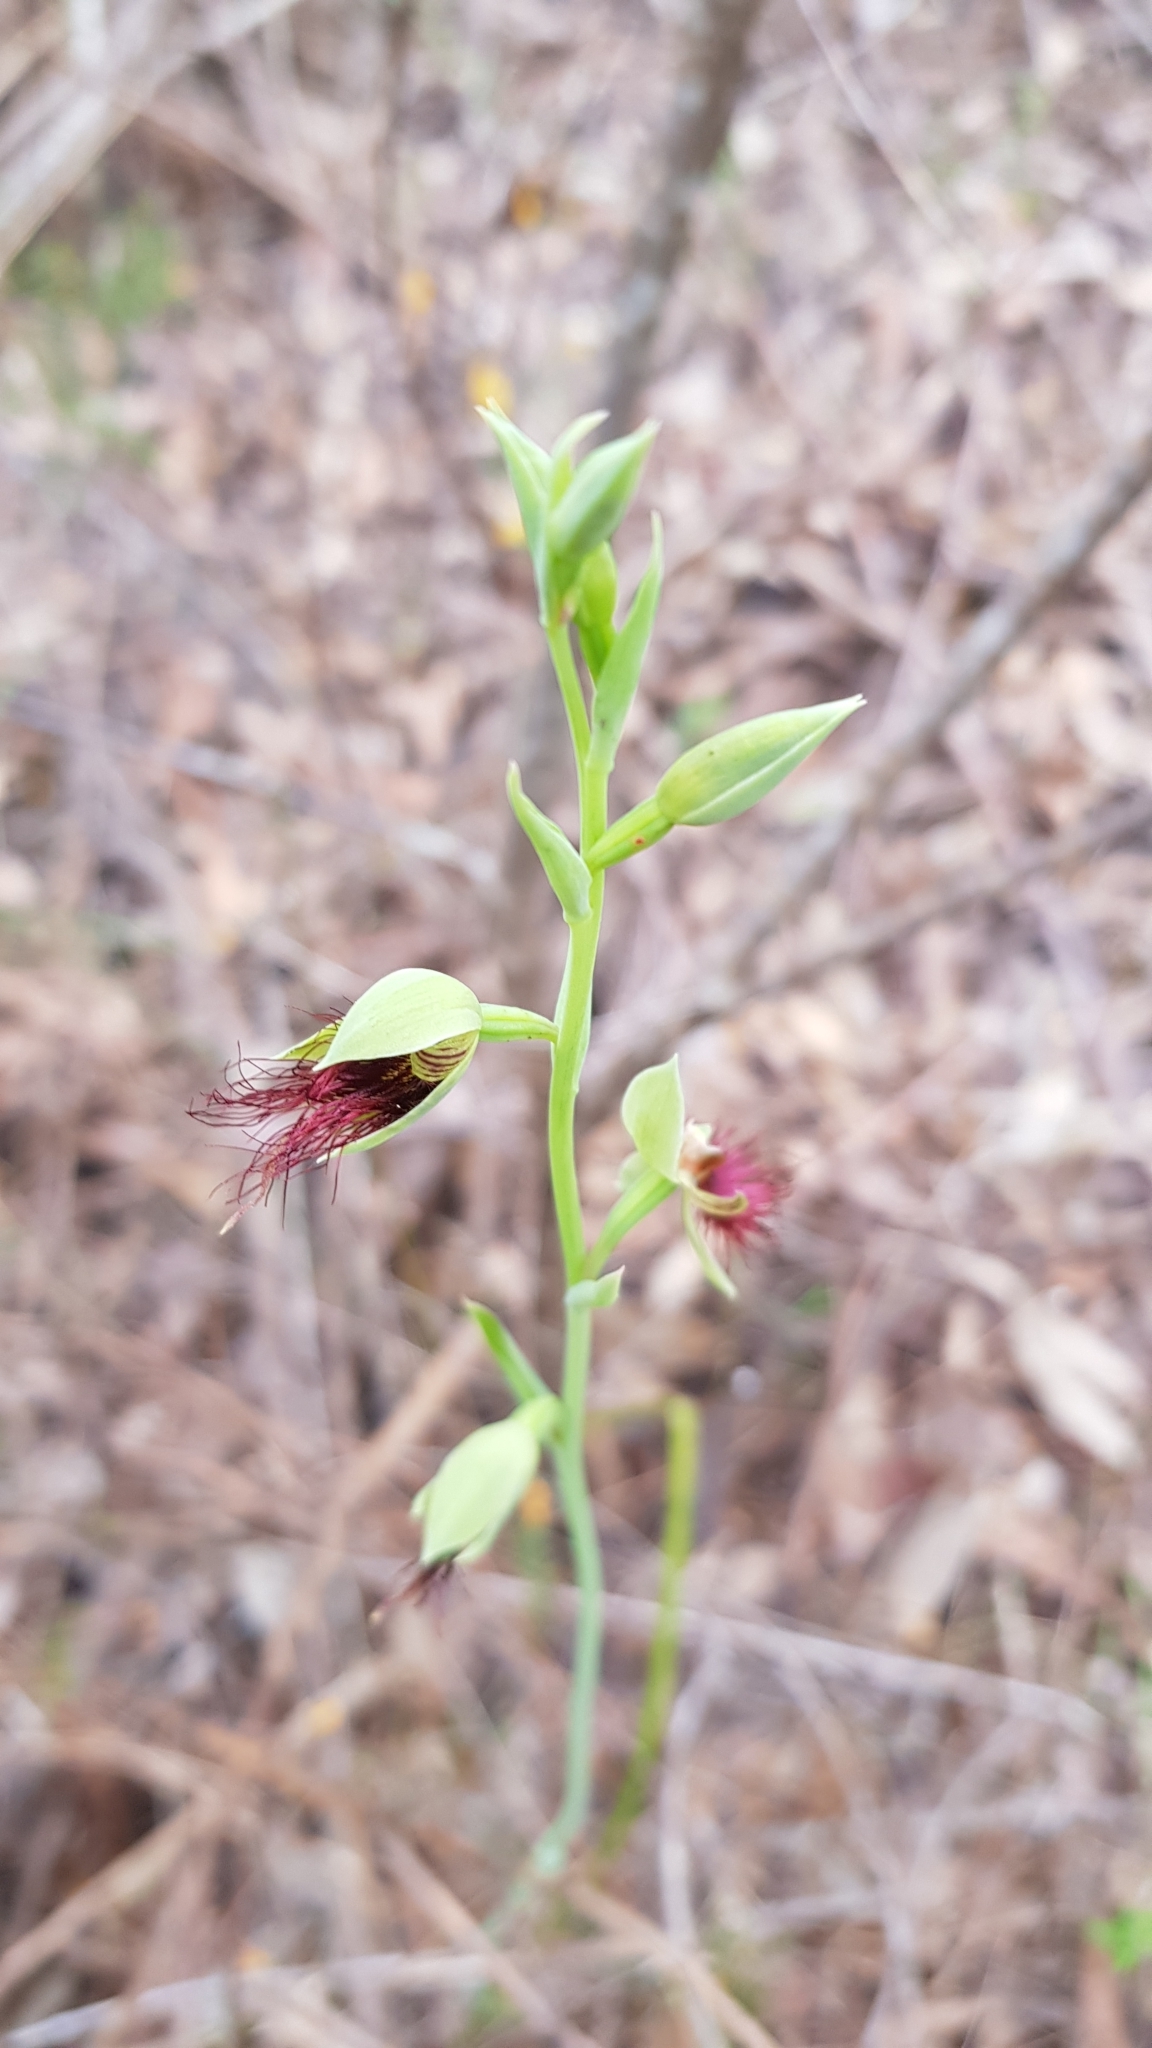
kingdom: Plantae
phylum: Tracheophyta
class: Liliopsida
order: Asparagales
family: Orchidaceae
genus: Calochilus
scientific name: Calochilus paludosus
